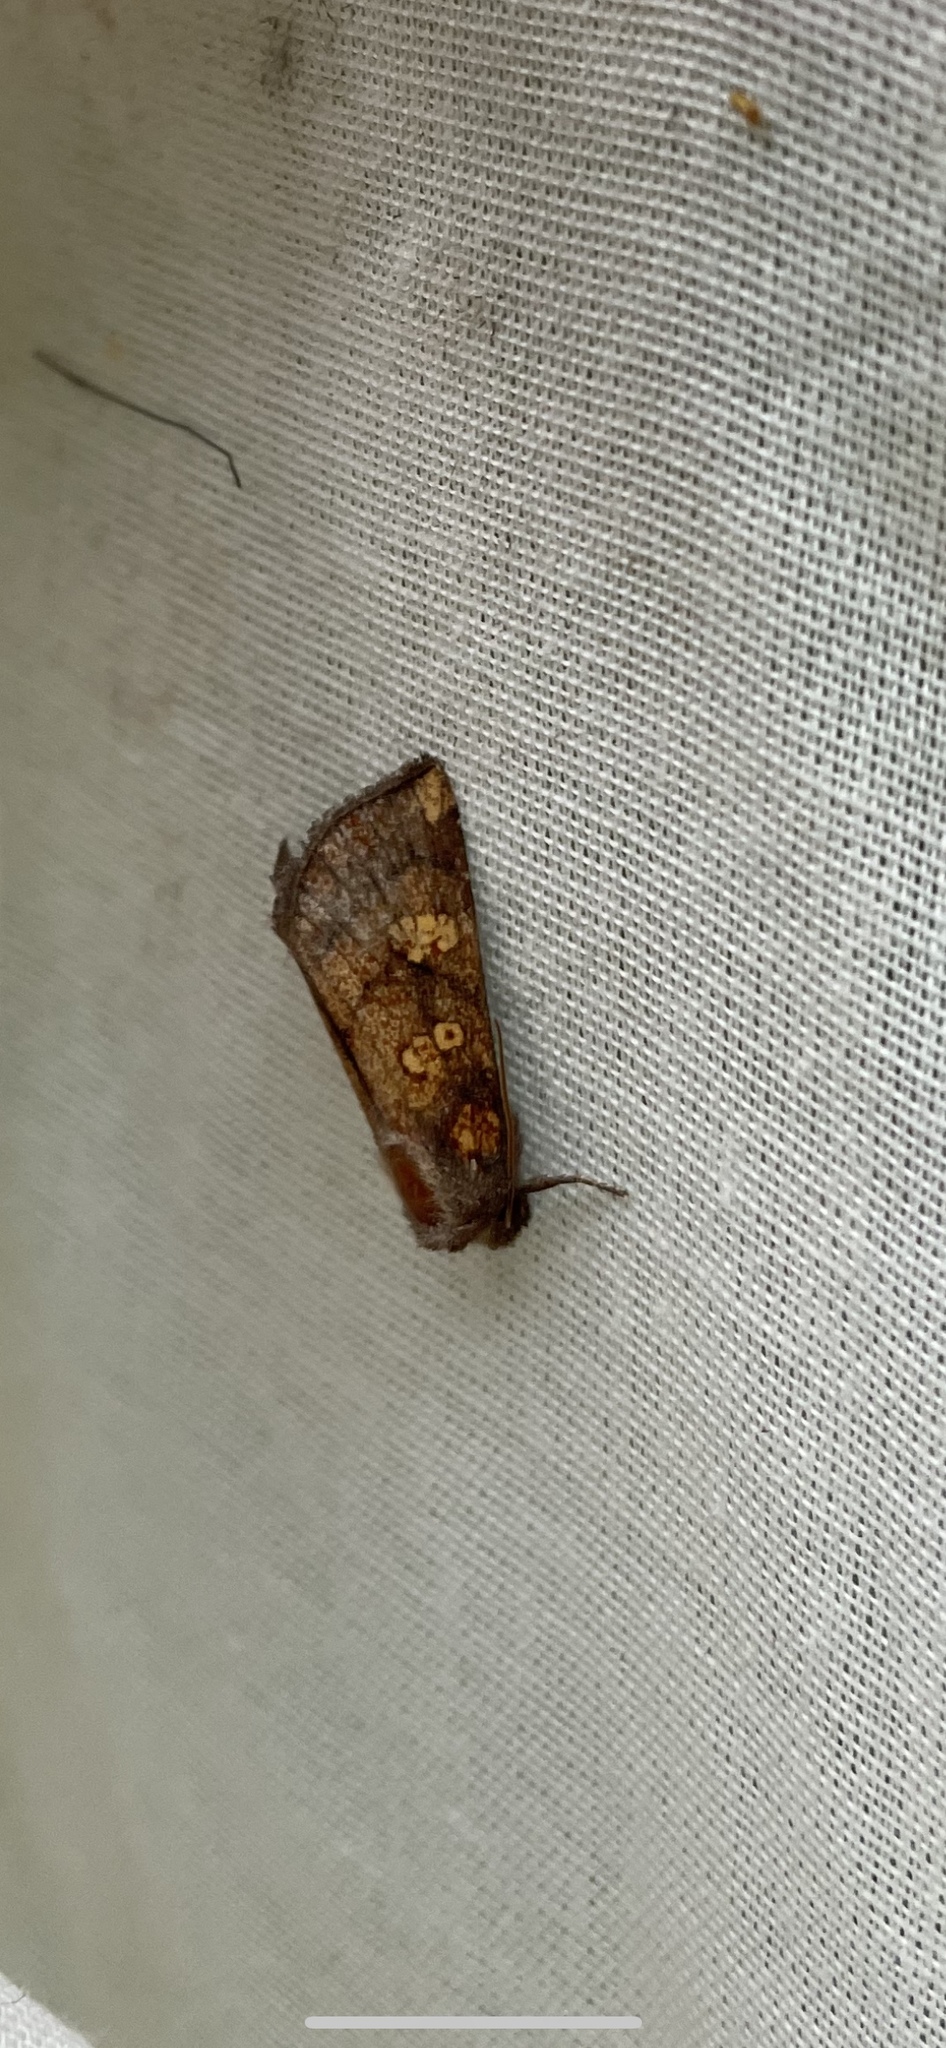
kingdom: Animalia
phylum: Arthropoda
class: Insecta
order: Lepidoptera
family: Noctuidae
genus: Papaipema
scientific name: Papaipema impecuniosa
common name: Aster borer moth
